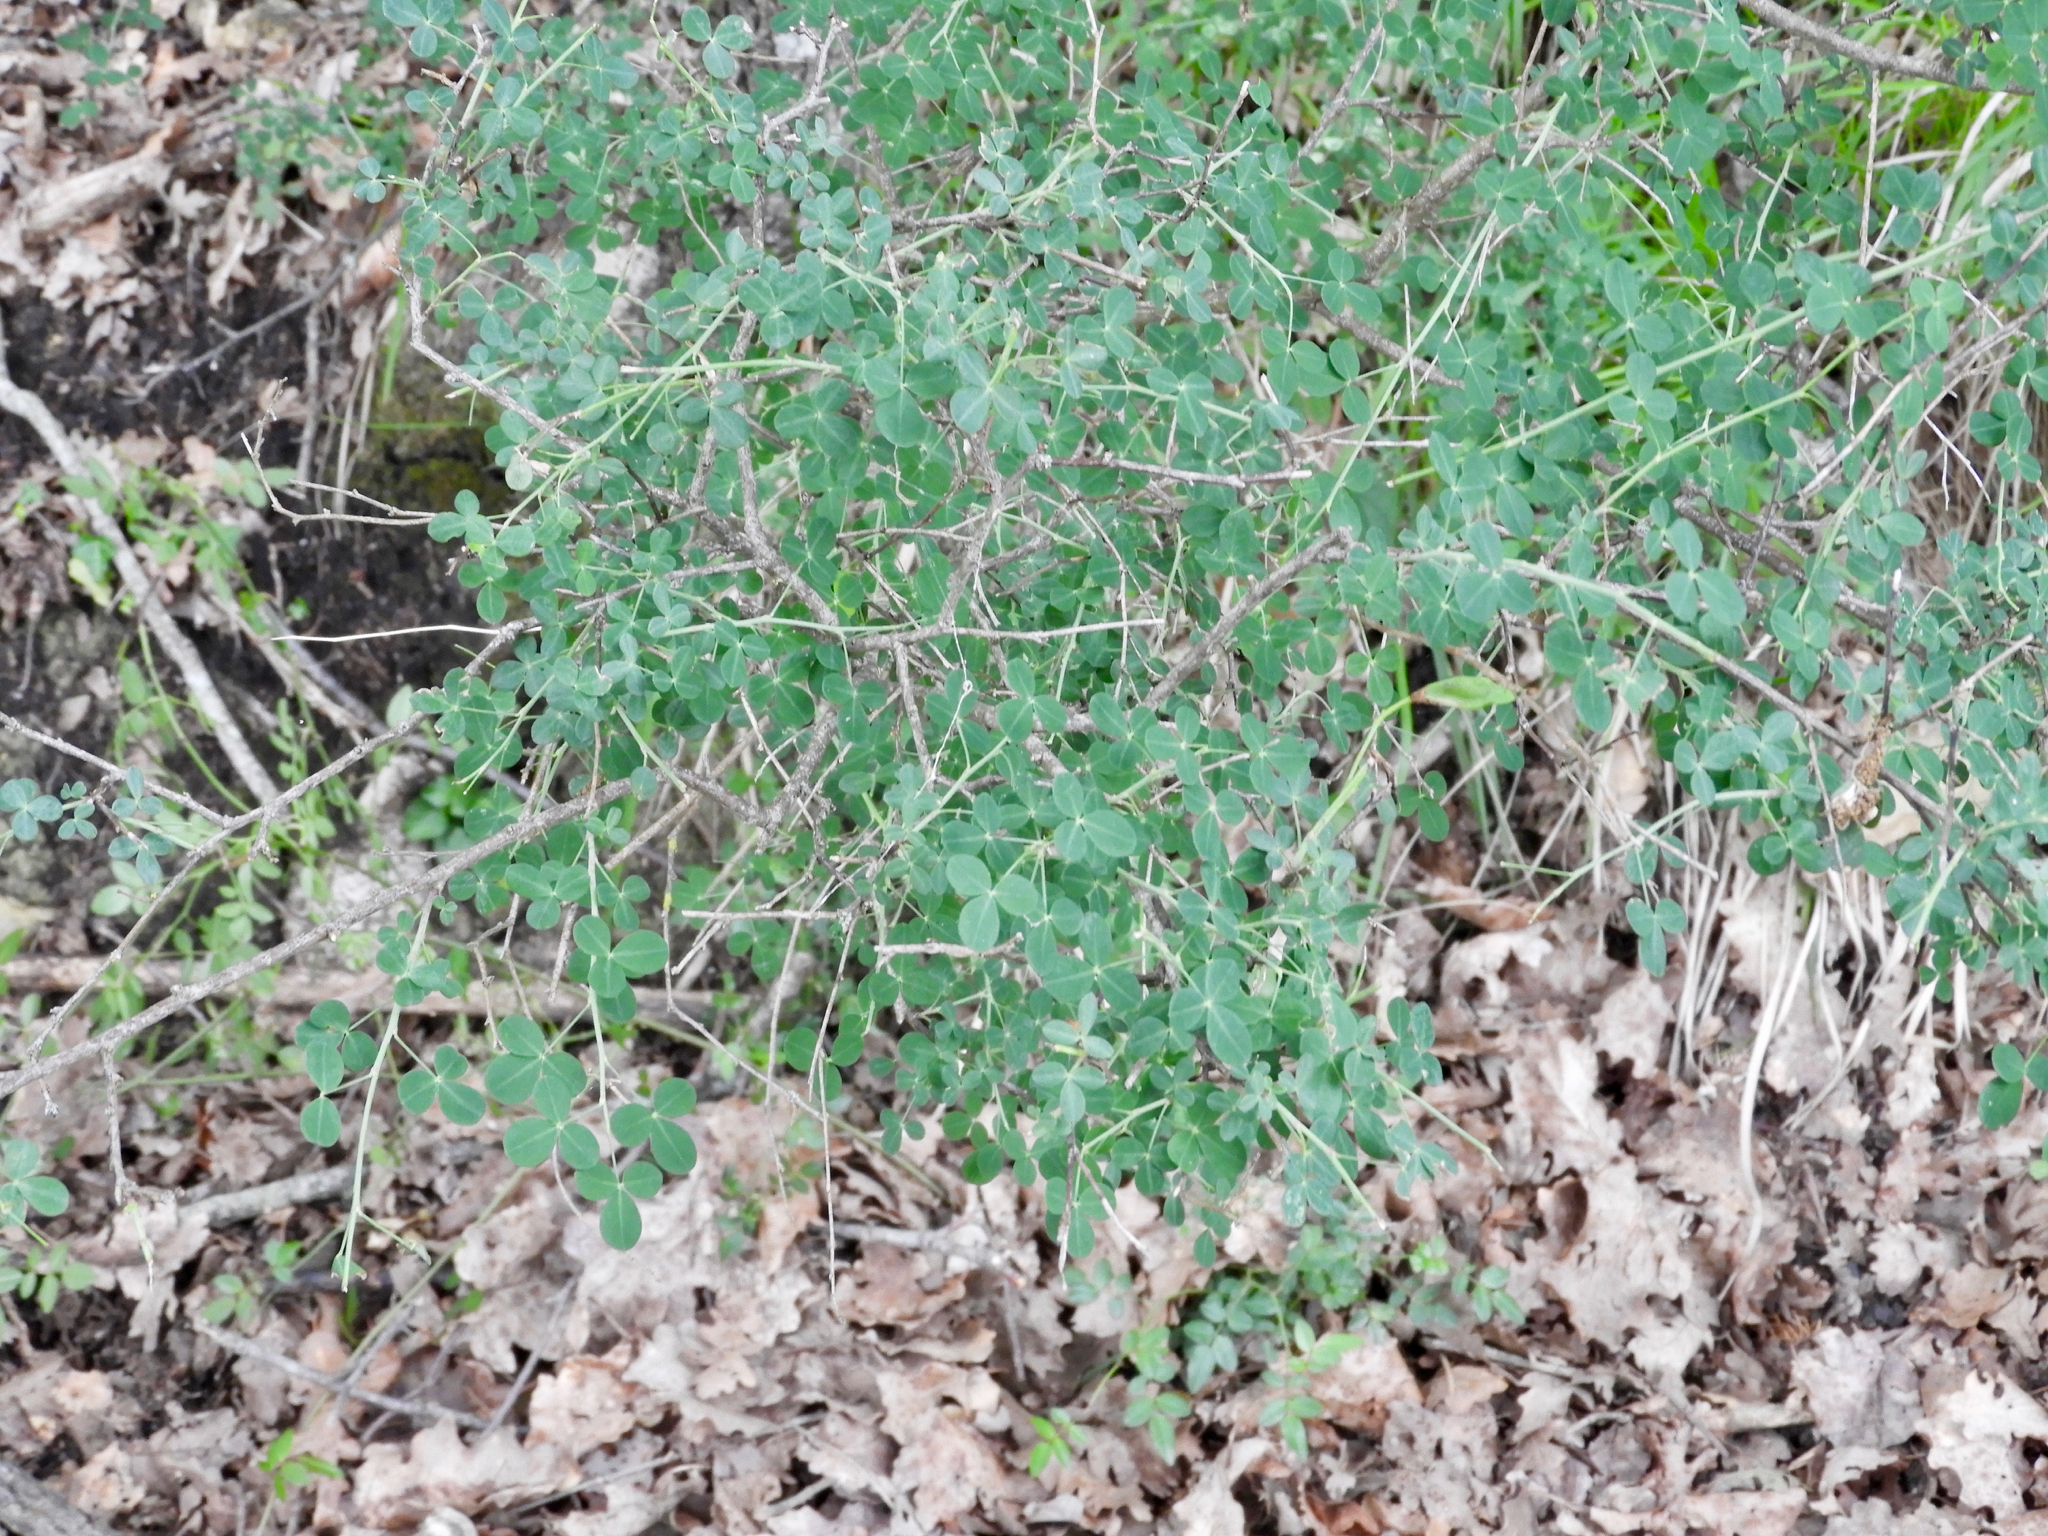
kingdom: Plantae
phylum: Tracheophyta
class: Magnoliopsida
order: Fabales
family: Fabaceae
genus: Cytisophyllum
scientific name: Cytisophyllum sessilifolium
